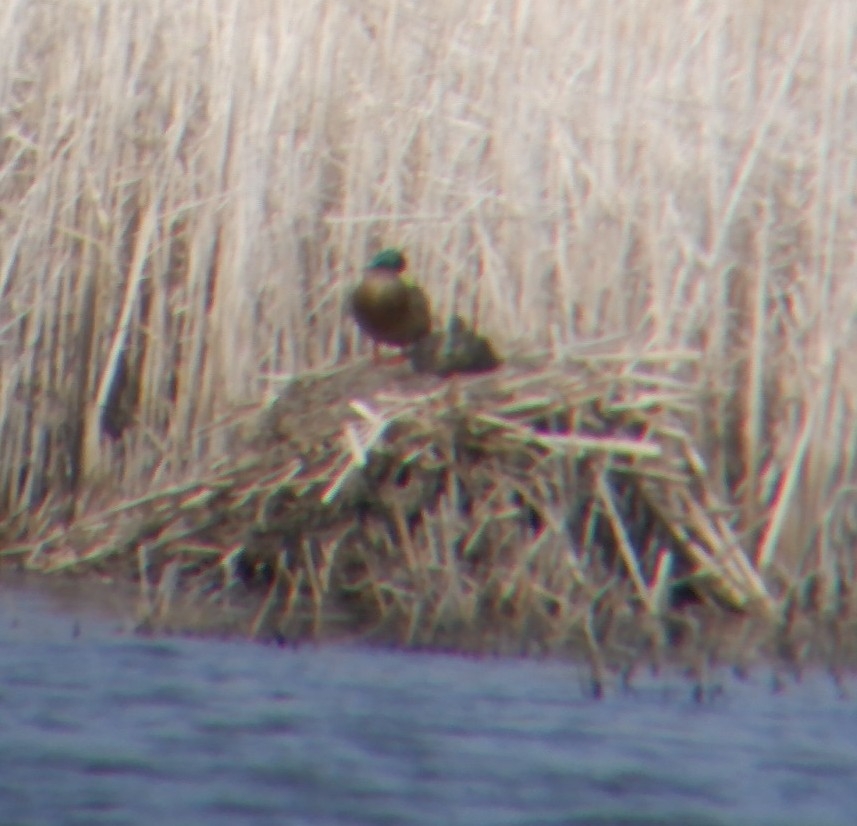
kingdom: Animalia
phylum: Chordata
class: Aves
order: Anseriformes
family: Anatidae
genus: Anas
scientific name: Anas platyrhynchos
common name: Mallard
